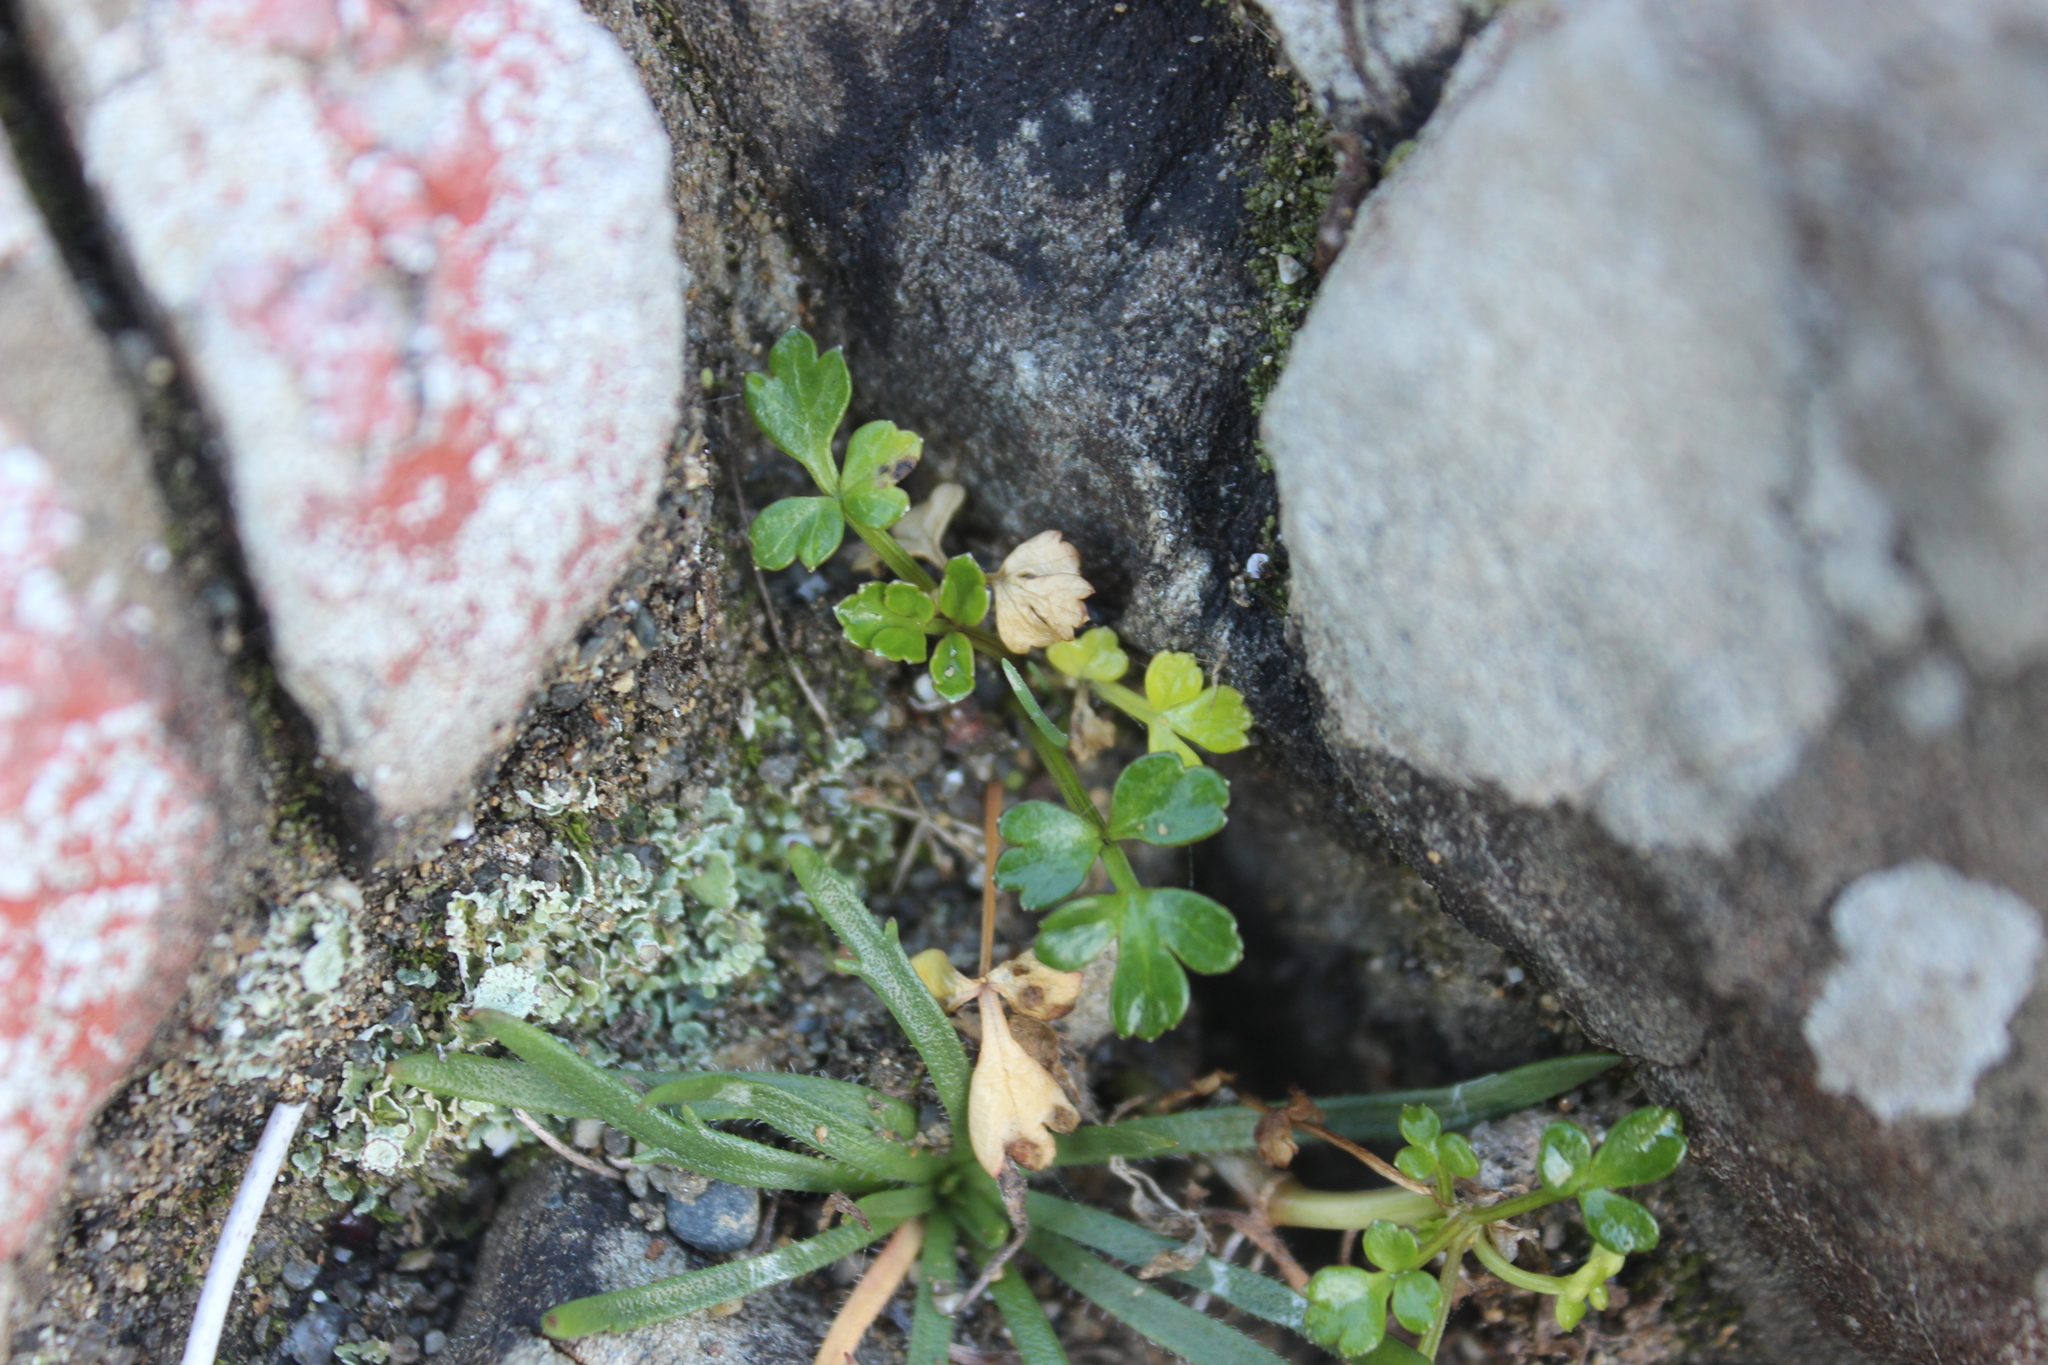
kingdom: Plantae
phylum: Tracheophyta
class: Magnoliopsida
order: Apiales
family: Apiaceae
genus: Apium
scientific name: Apium prostratum
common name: Prostrate marshwort
